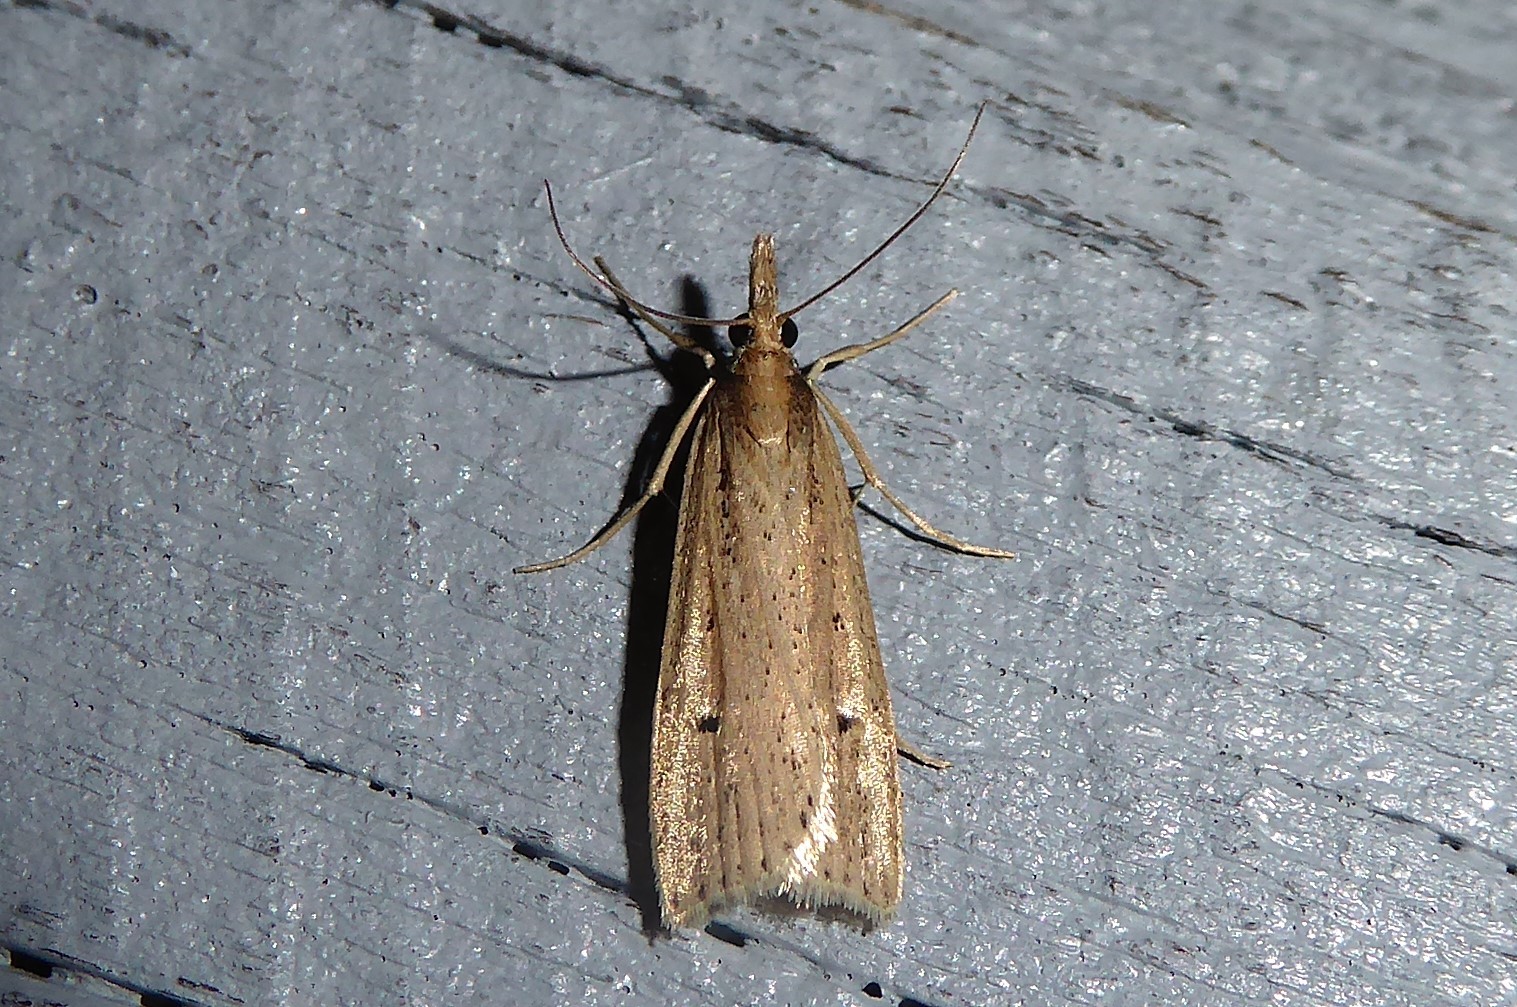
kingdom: Animalia
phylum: Arthropoda
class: Insecta
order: Lepidoptera
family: Crambidae
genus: Eudonia
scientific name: Eudonia sabulosella
